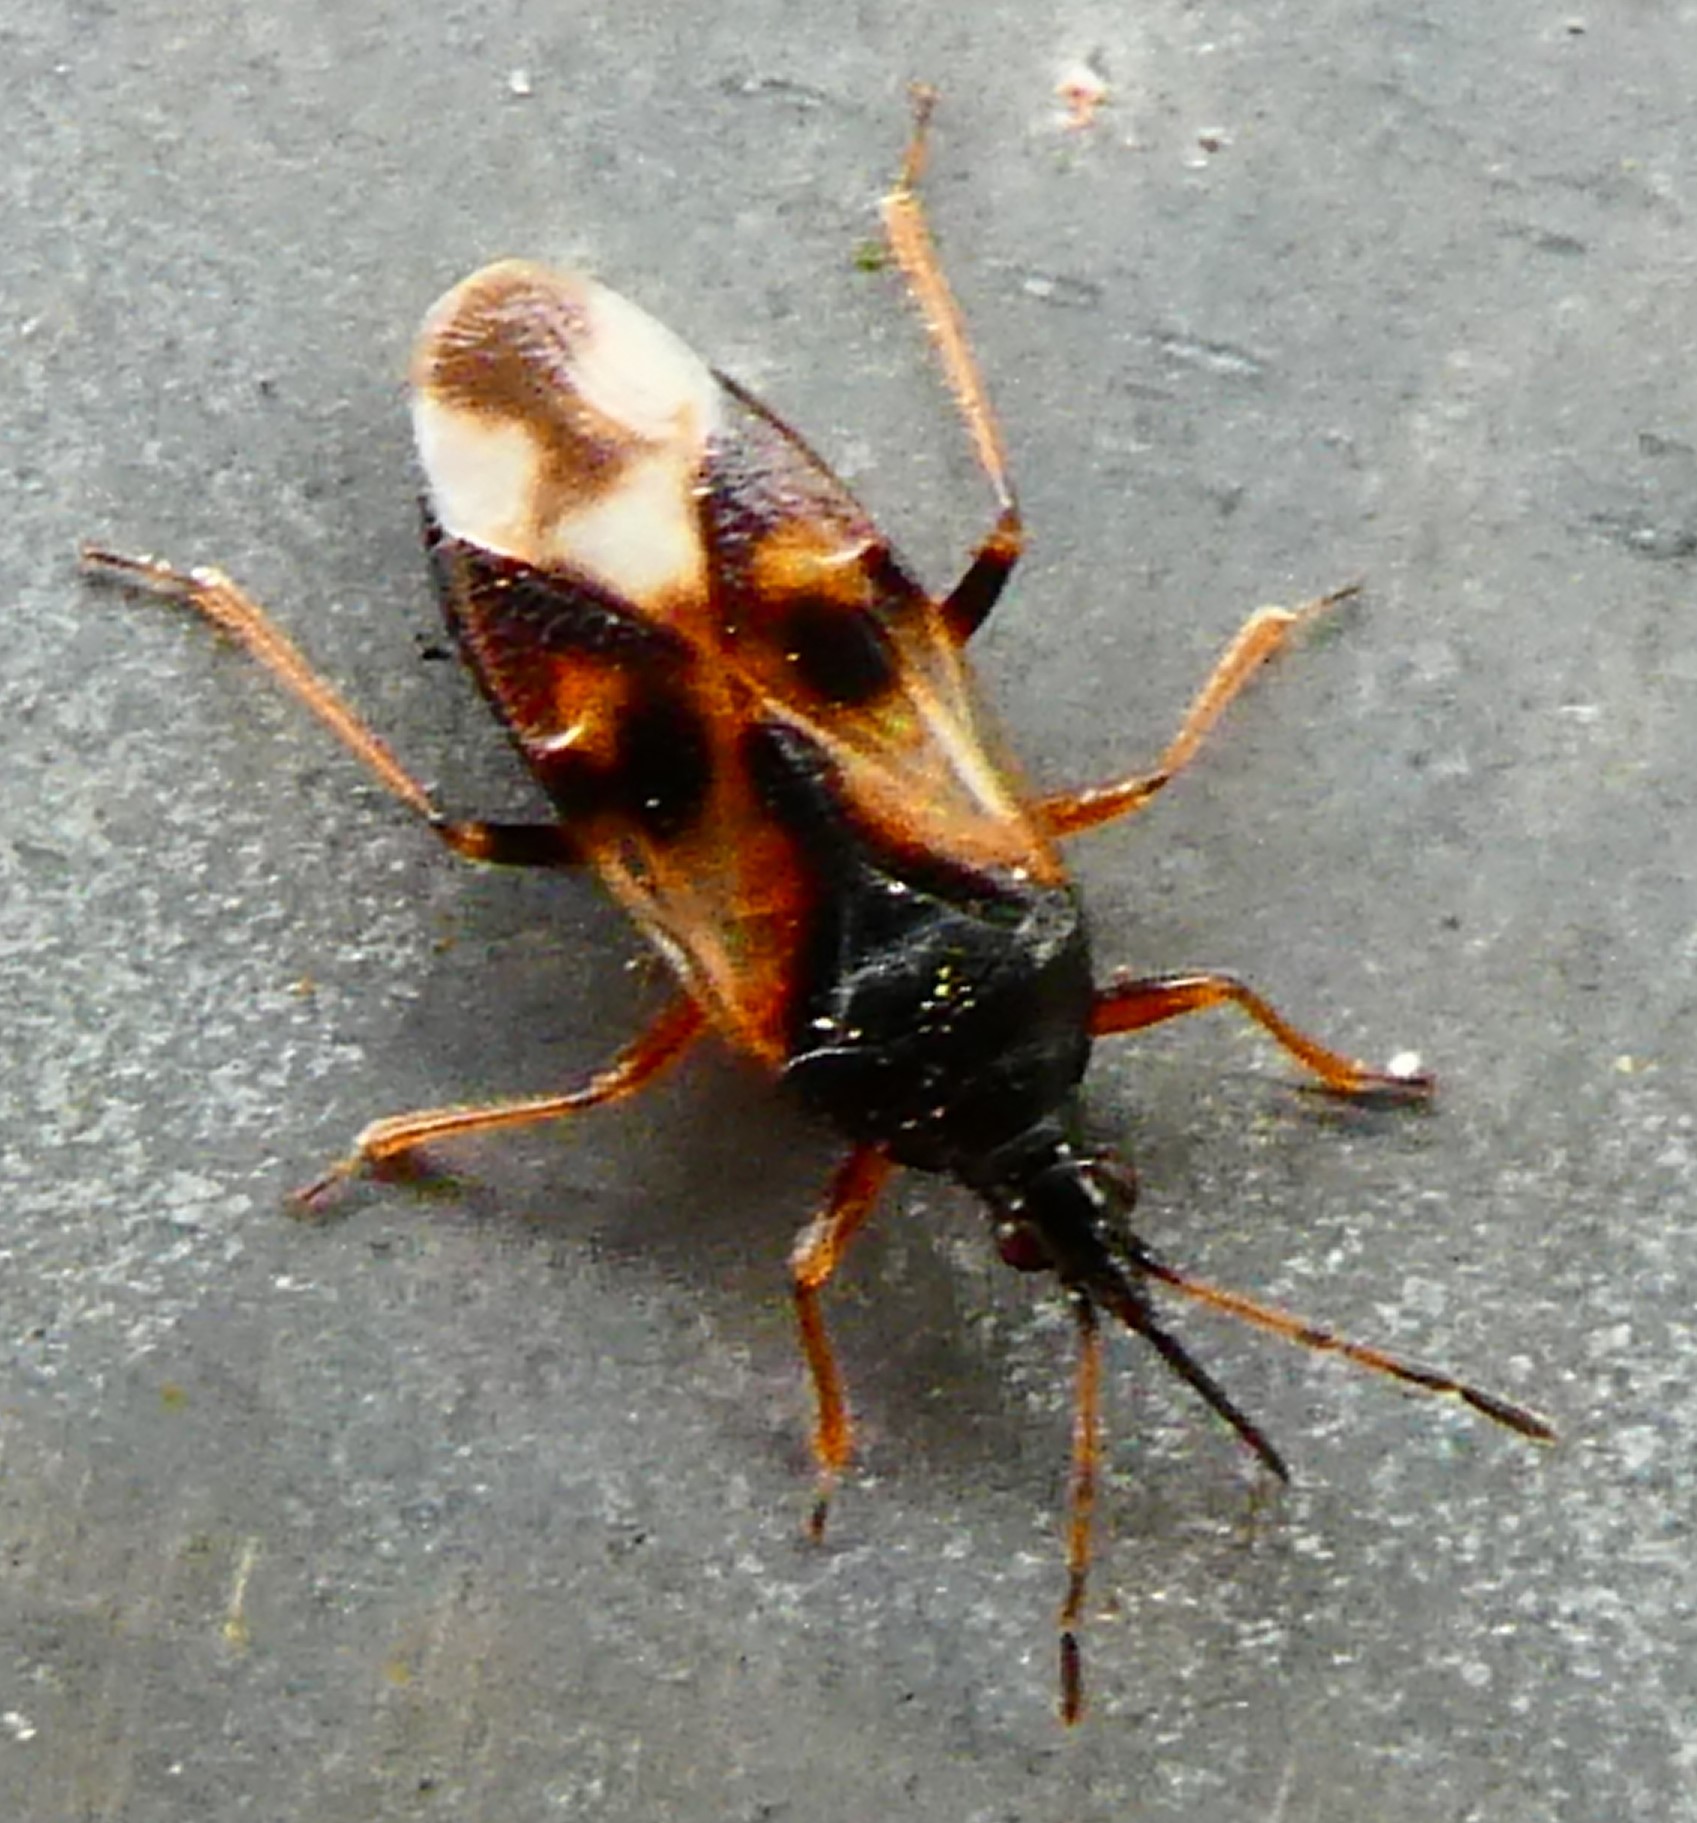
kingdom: Animalia
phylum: Arthropoda
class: Insecta
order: Hemiptera
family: Anthocoridae
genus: Anthocoris
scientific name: Anthocoris nemorum
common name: Minute pirate bug
